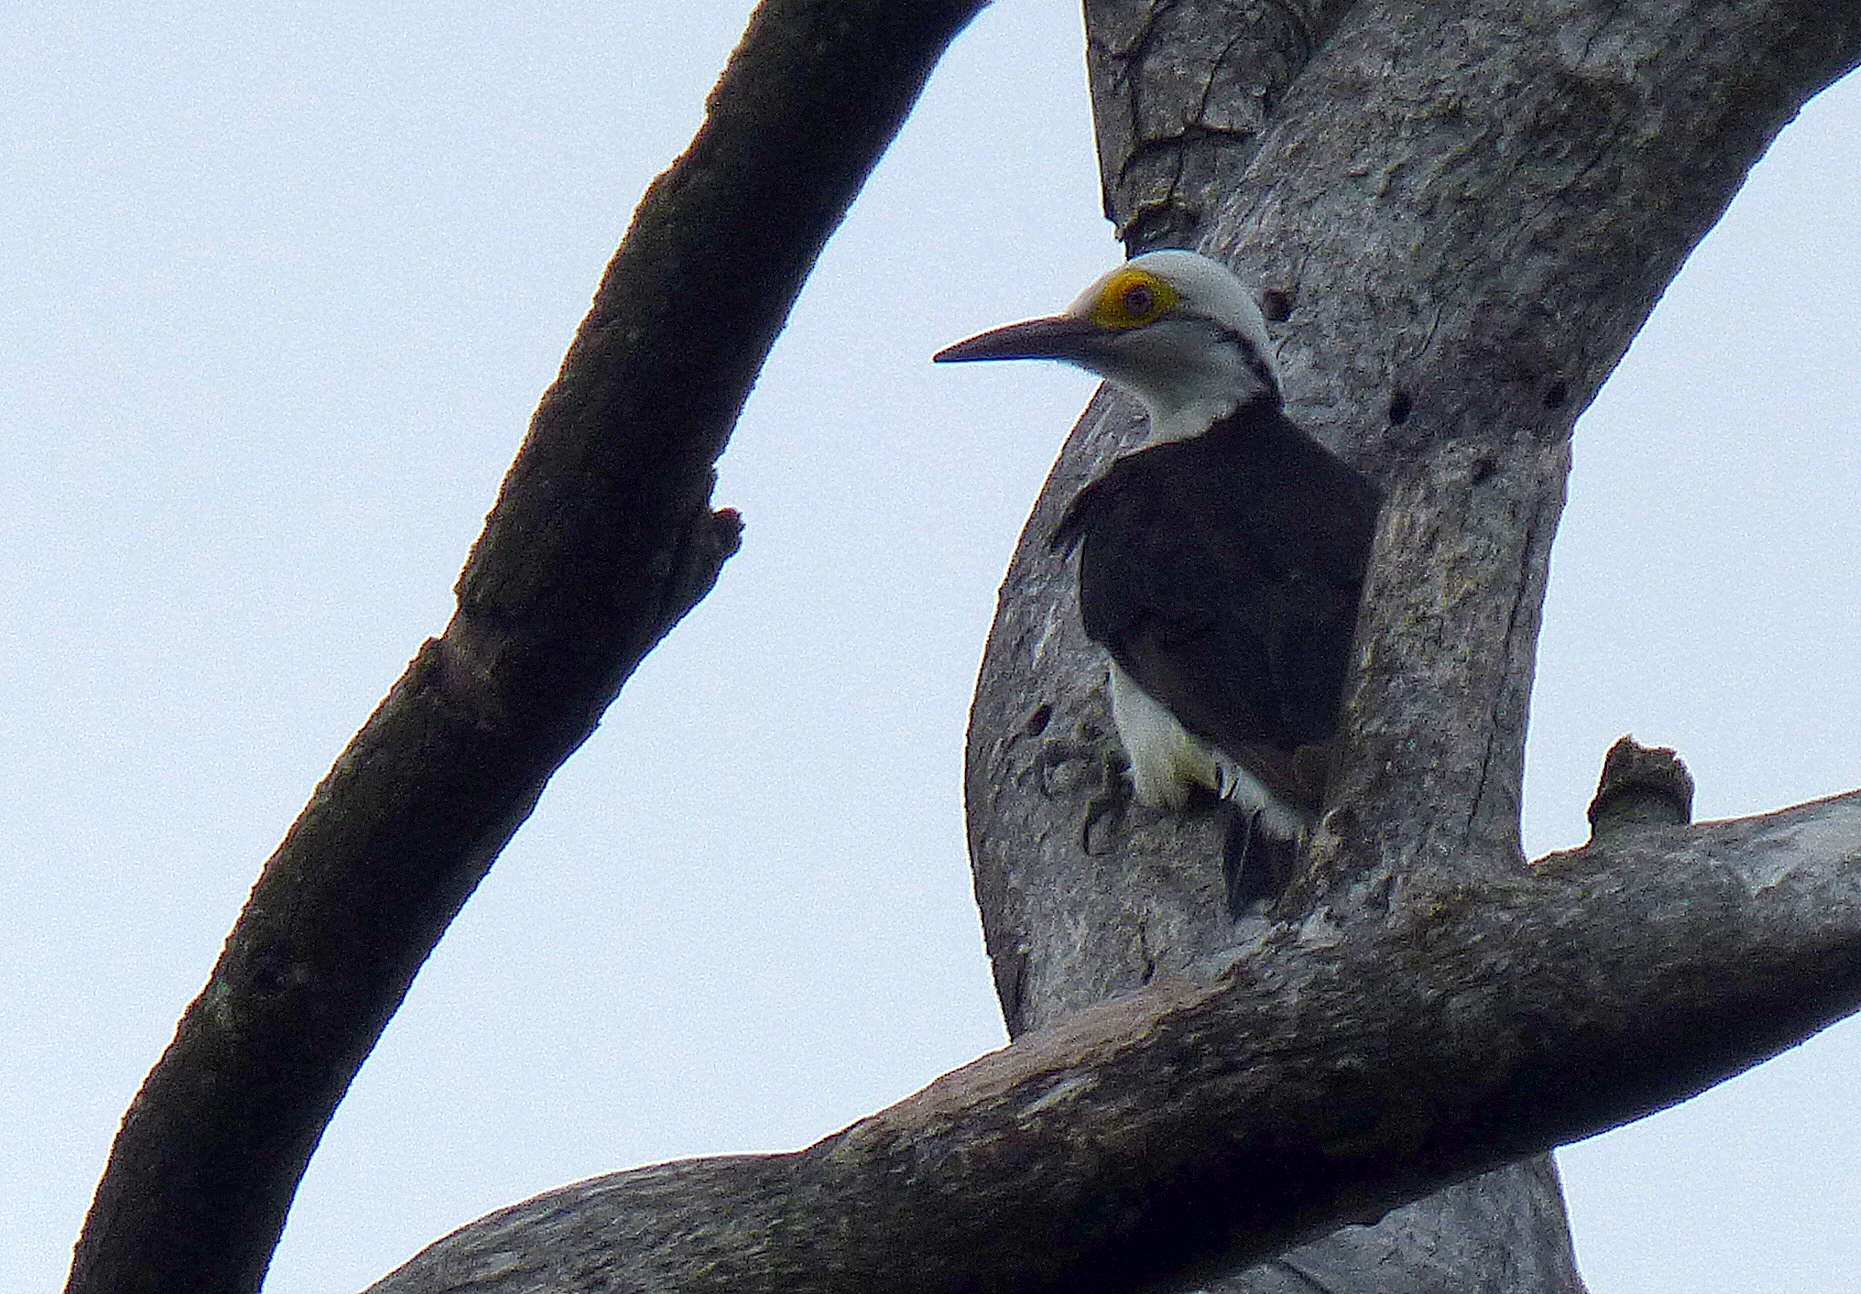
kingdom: Animalia
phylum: Chordata
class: Aves
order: Piciformes
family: Picidae
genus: Melanerpes
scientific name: Melanerpes candidus
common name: White woodpecker
